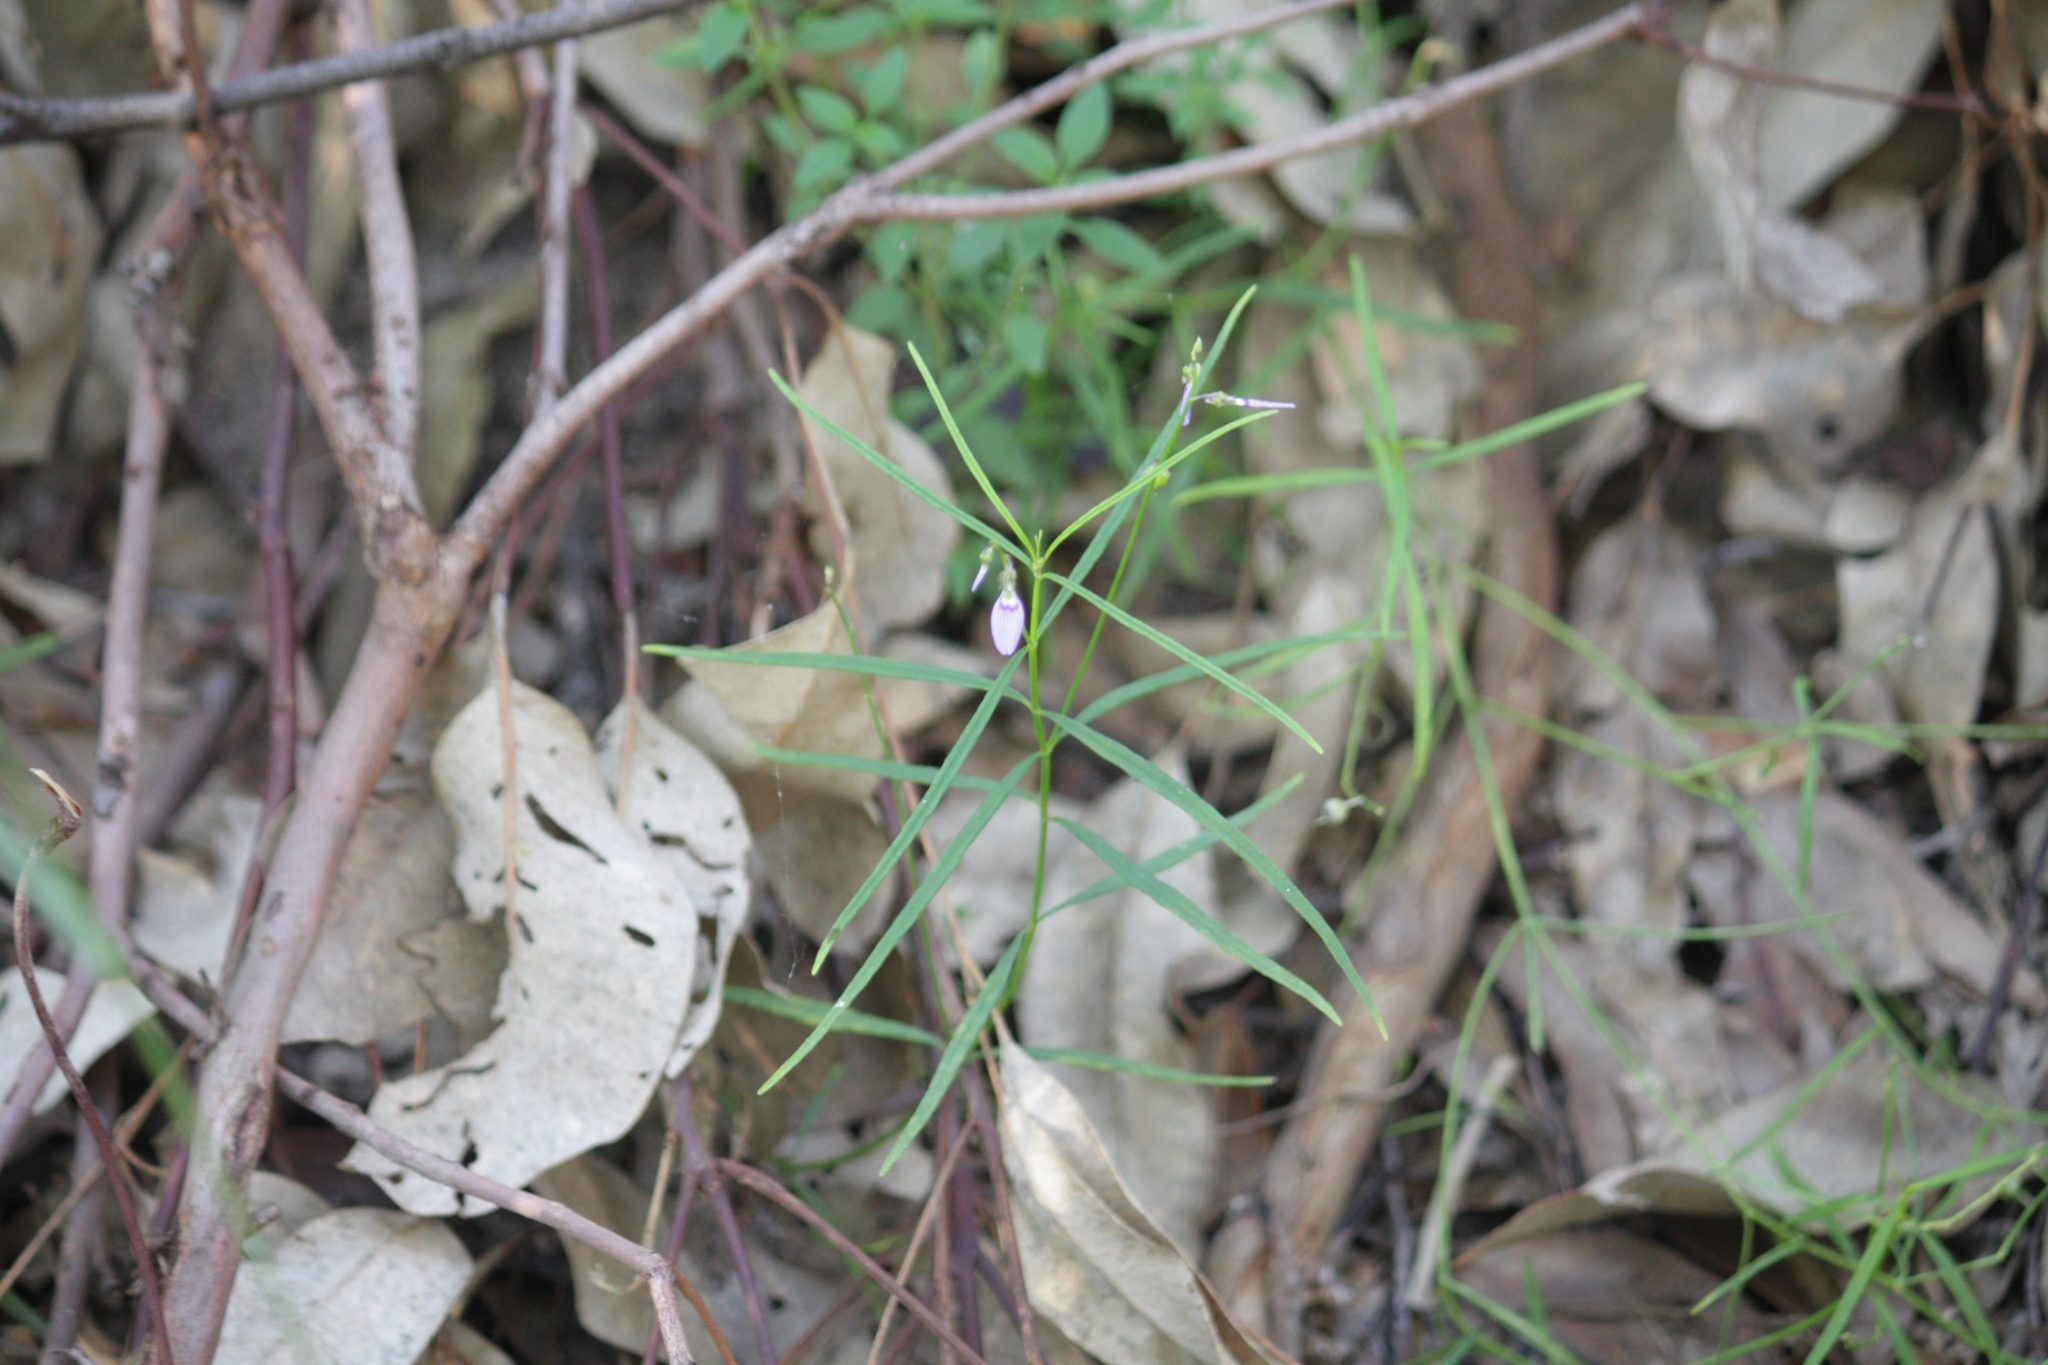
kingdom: Plantae
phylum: Tracheophyta
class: Magnoliopsida
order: Malpighiales
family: Violaceae
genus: Pigea
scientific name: Pigea monopetala
